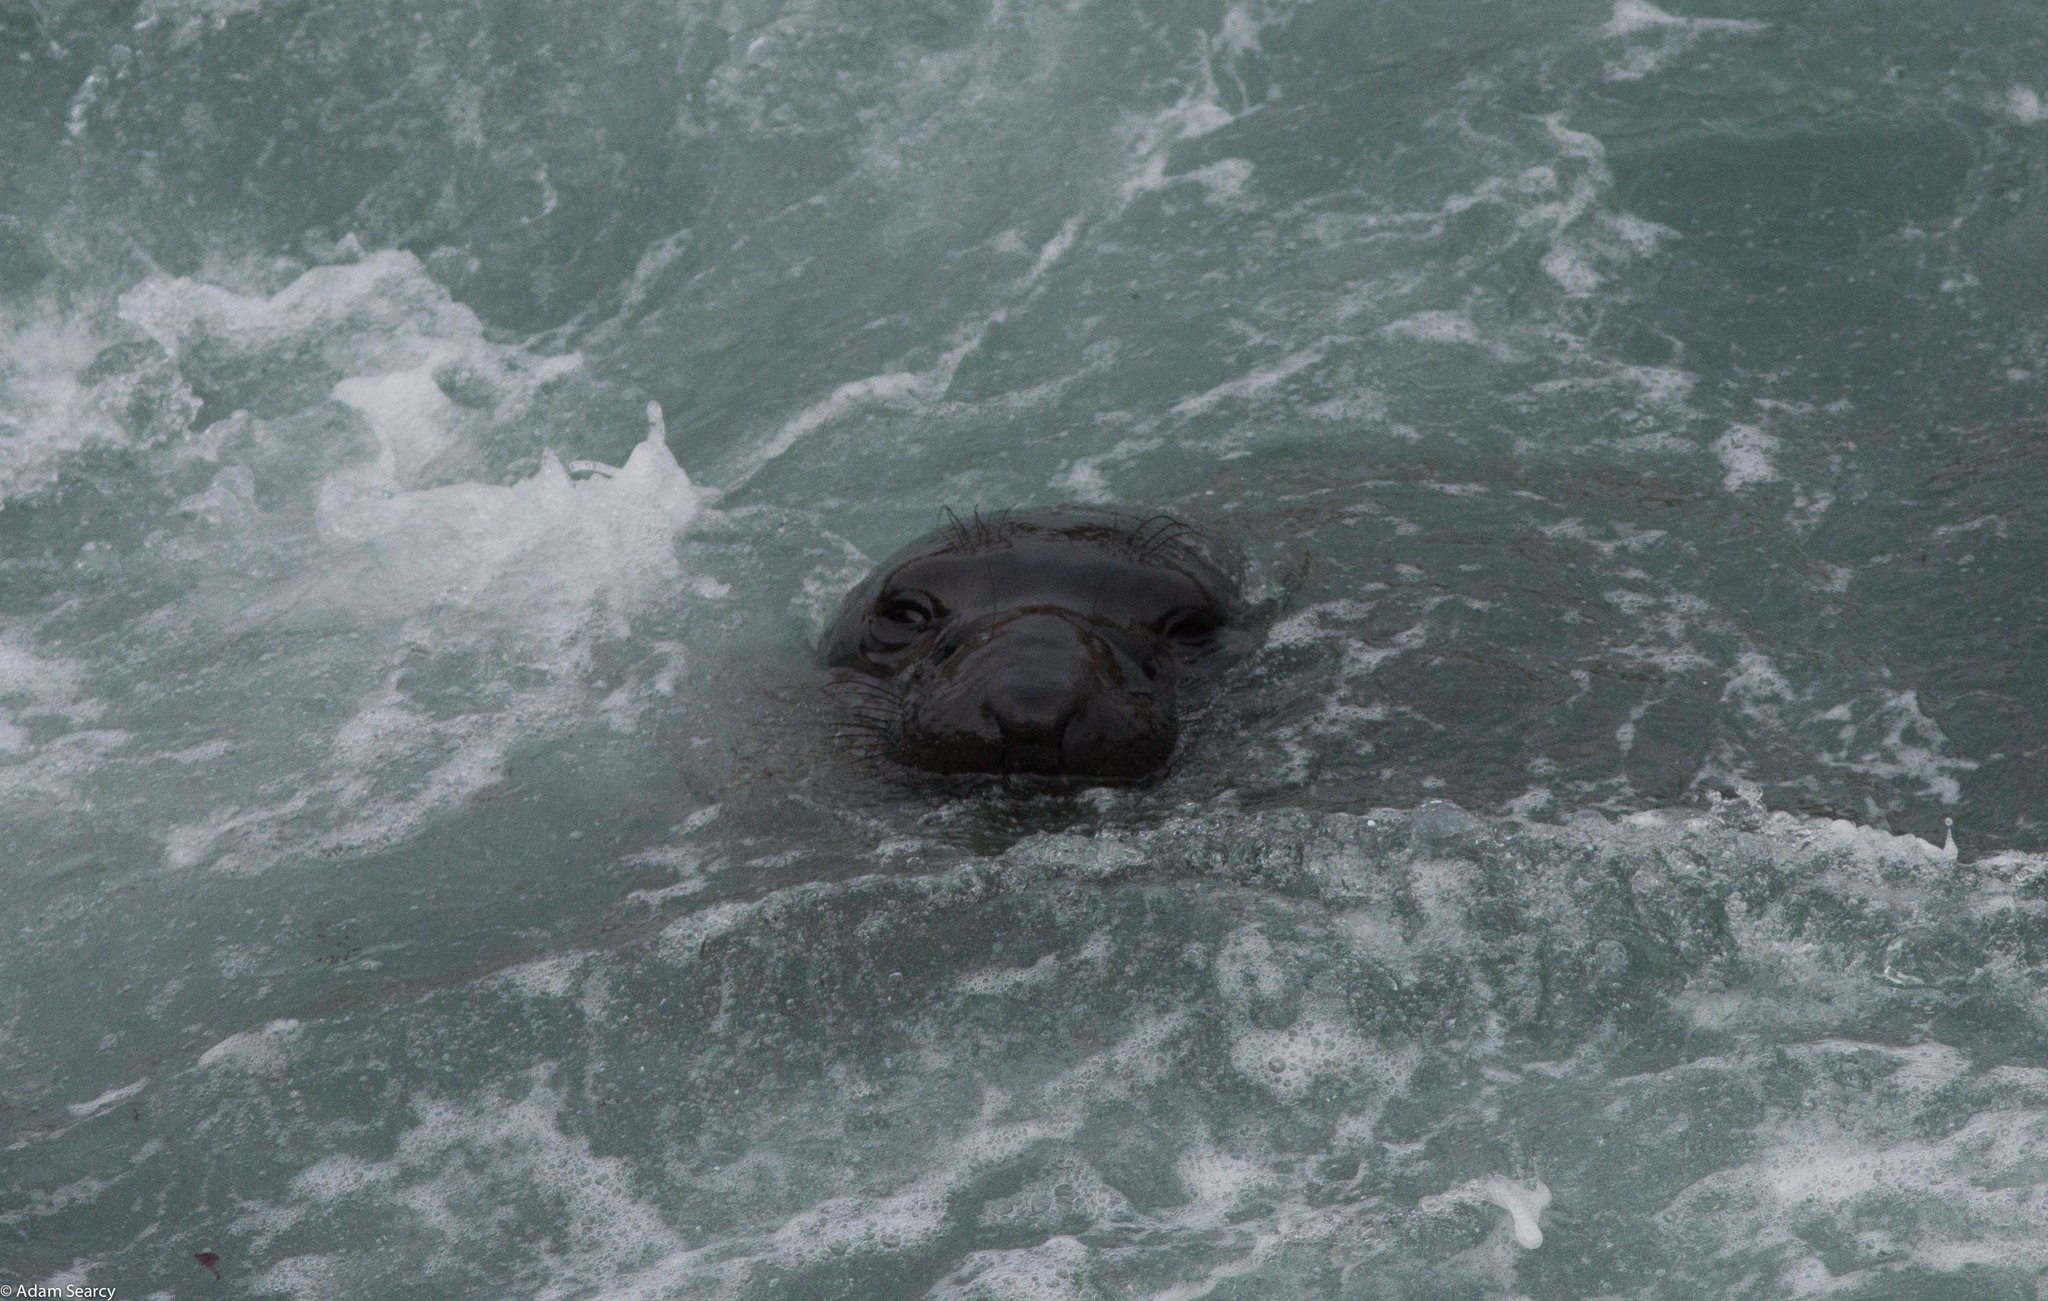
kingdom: Animalia
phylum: Chordata
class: Mammalia
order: Carnivora
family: Phocidae
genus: Mirounga
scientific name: Mirounga angustirostris
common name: Northern elephant seal
